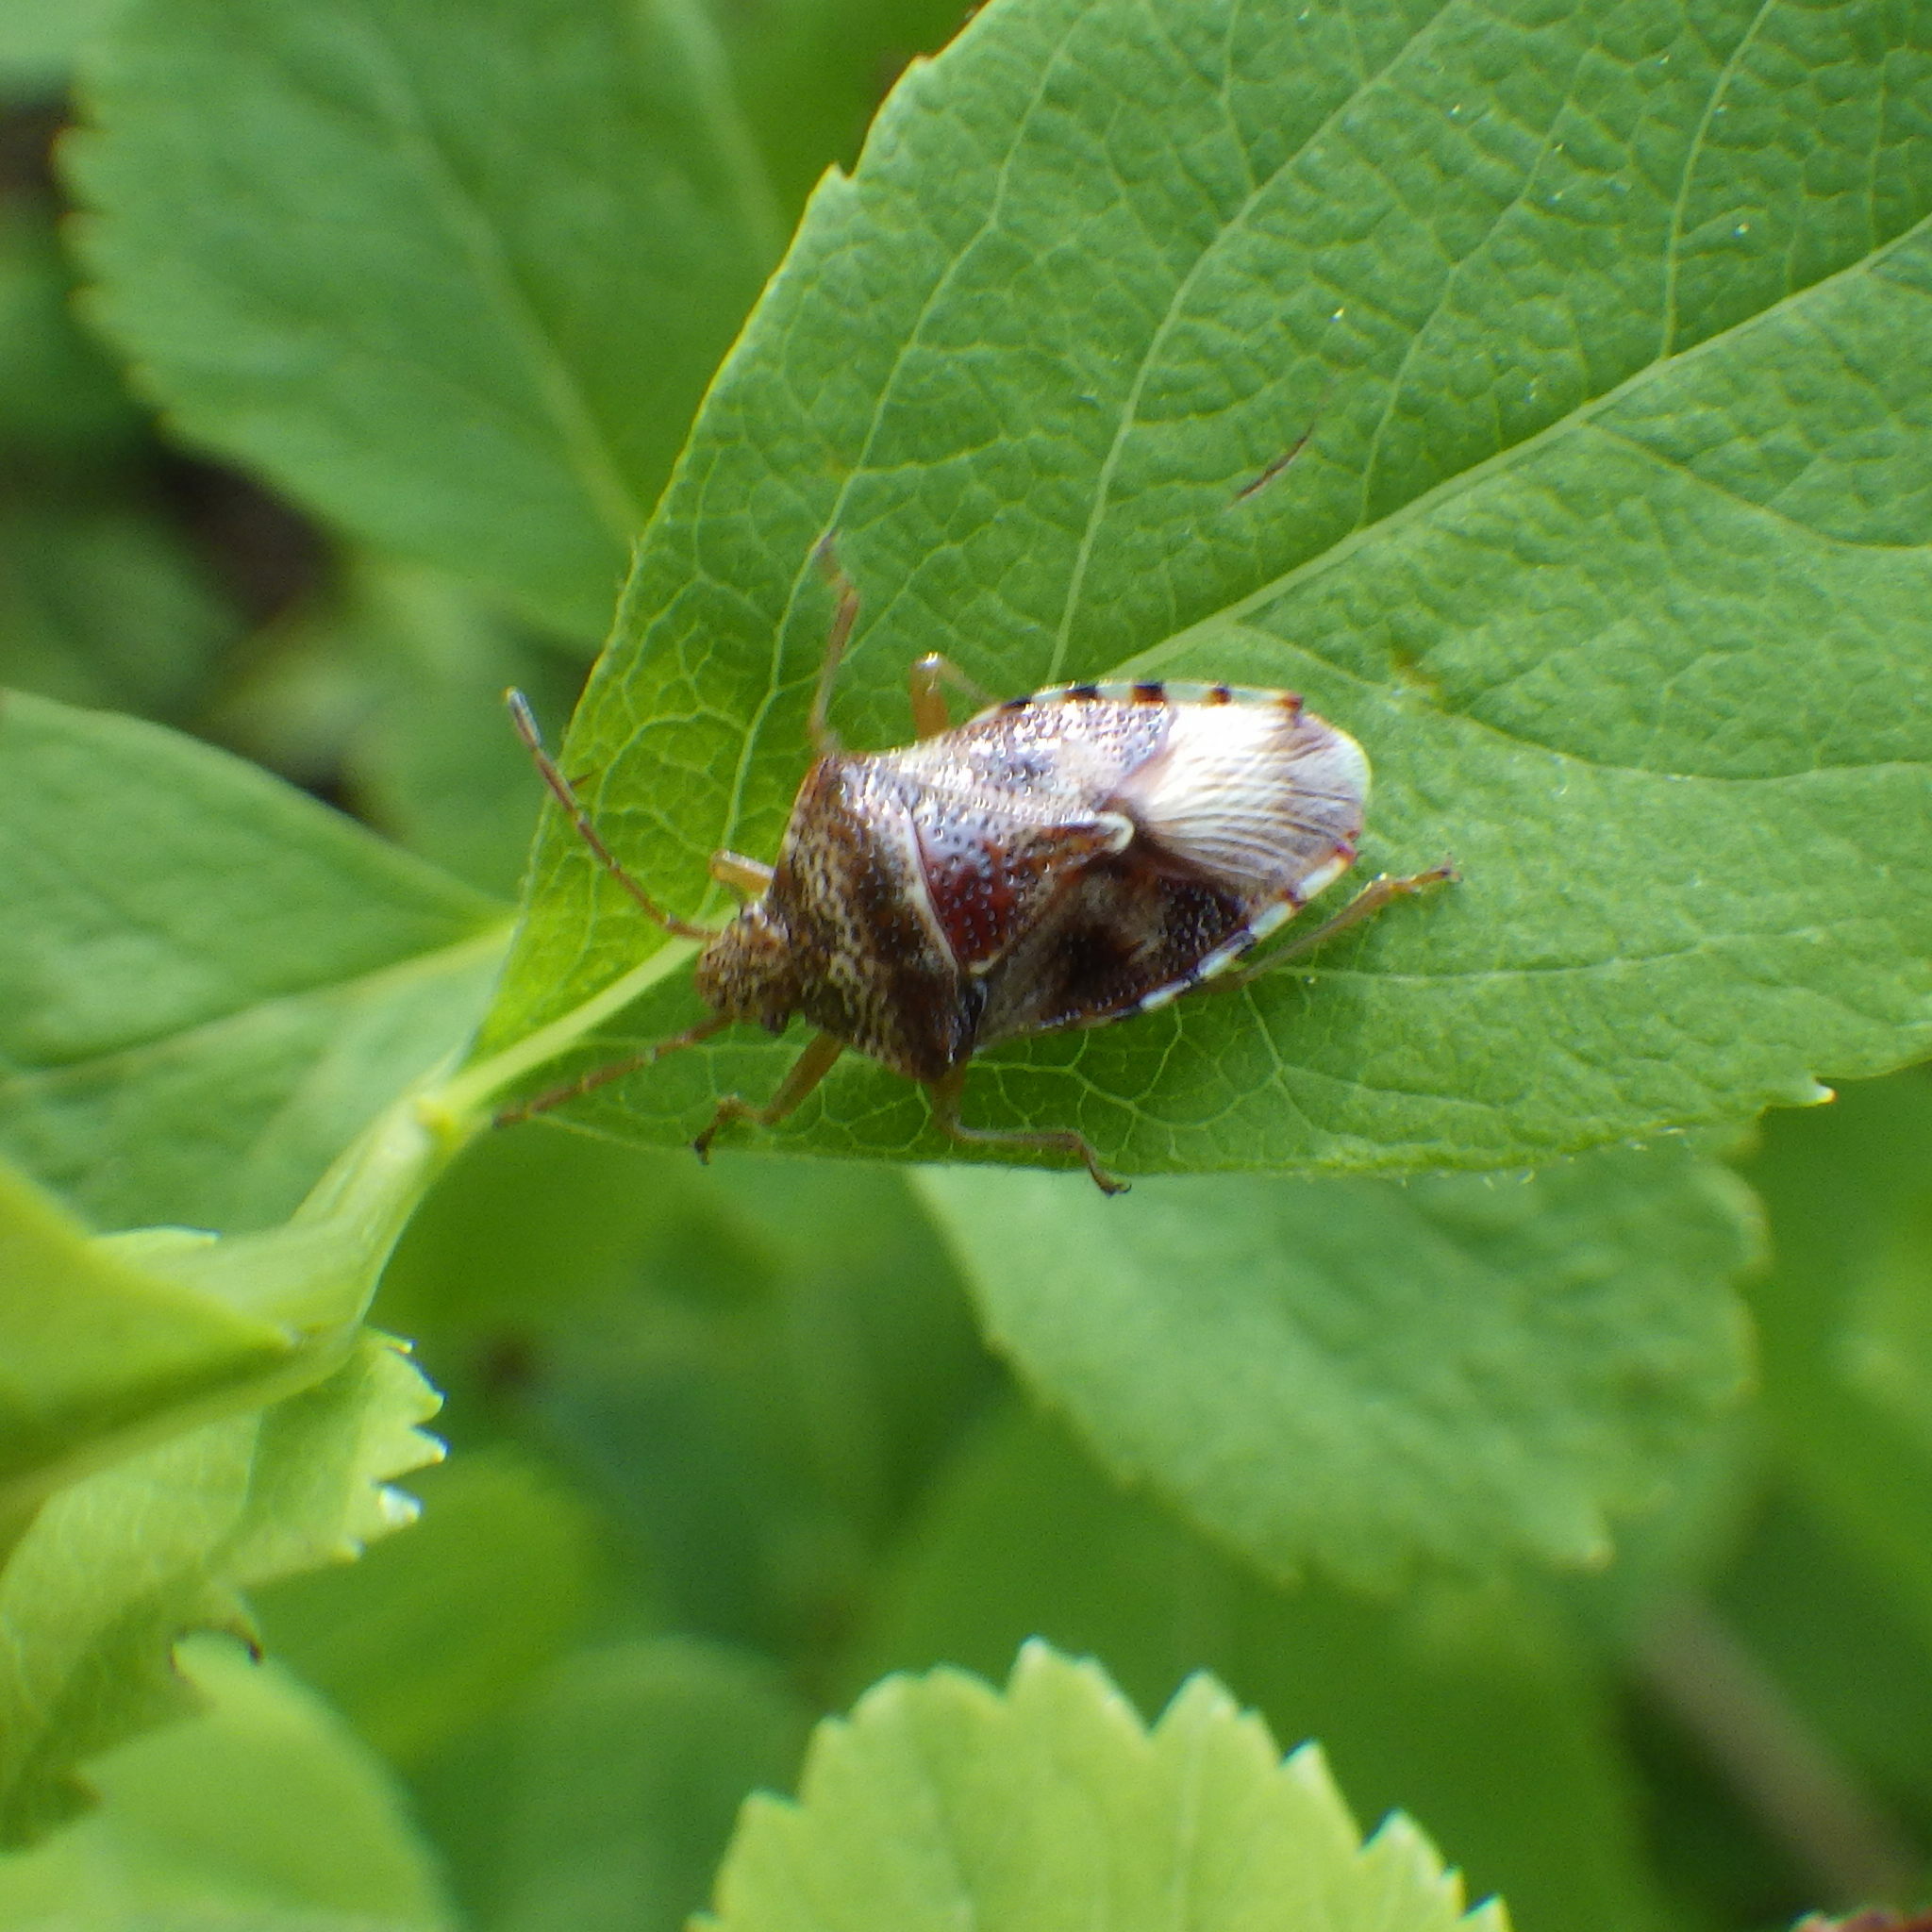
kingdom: Animalia
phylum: Arthropoda
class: Insecta
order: Hemiptera
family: Acanthosomatidae
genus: Elasmucha
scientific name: Elasmucha lateralis
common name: Shield bug
